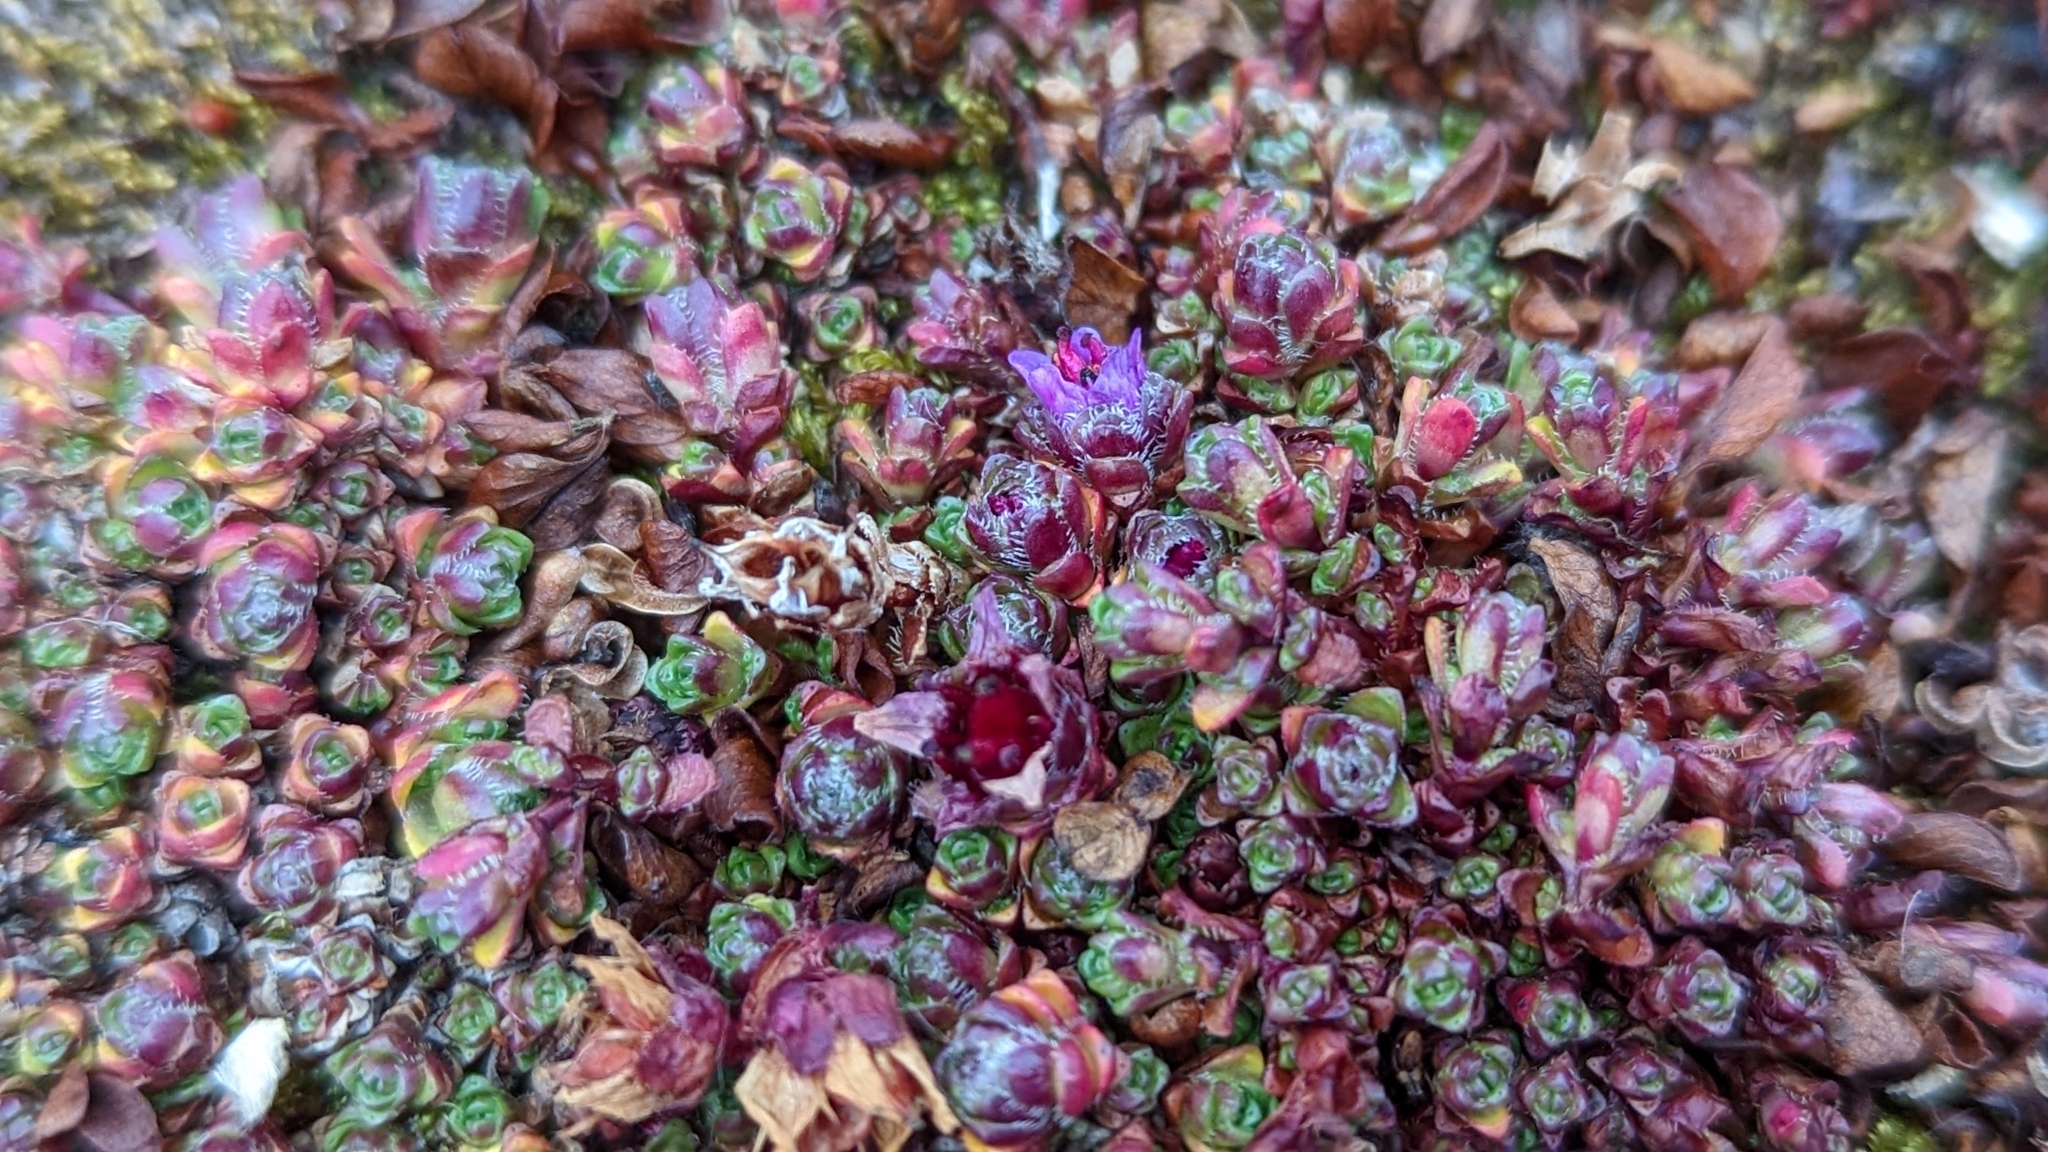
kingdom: Plantae
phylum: Tracheophyta
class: Magnoliopsida
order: Saxifragales
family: Saxifragaceae
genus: Saxifraga
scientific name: Saxifraga oppositifolia
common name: Purple saxifrage
